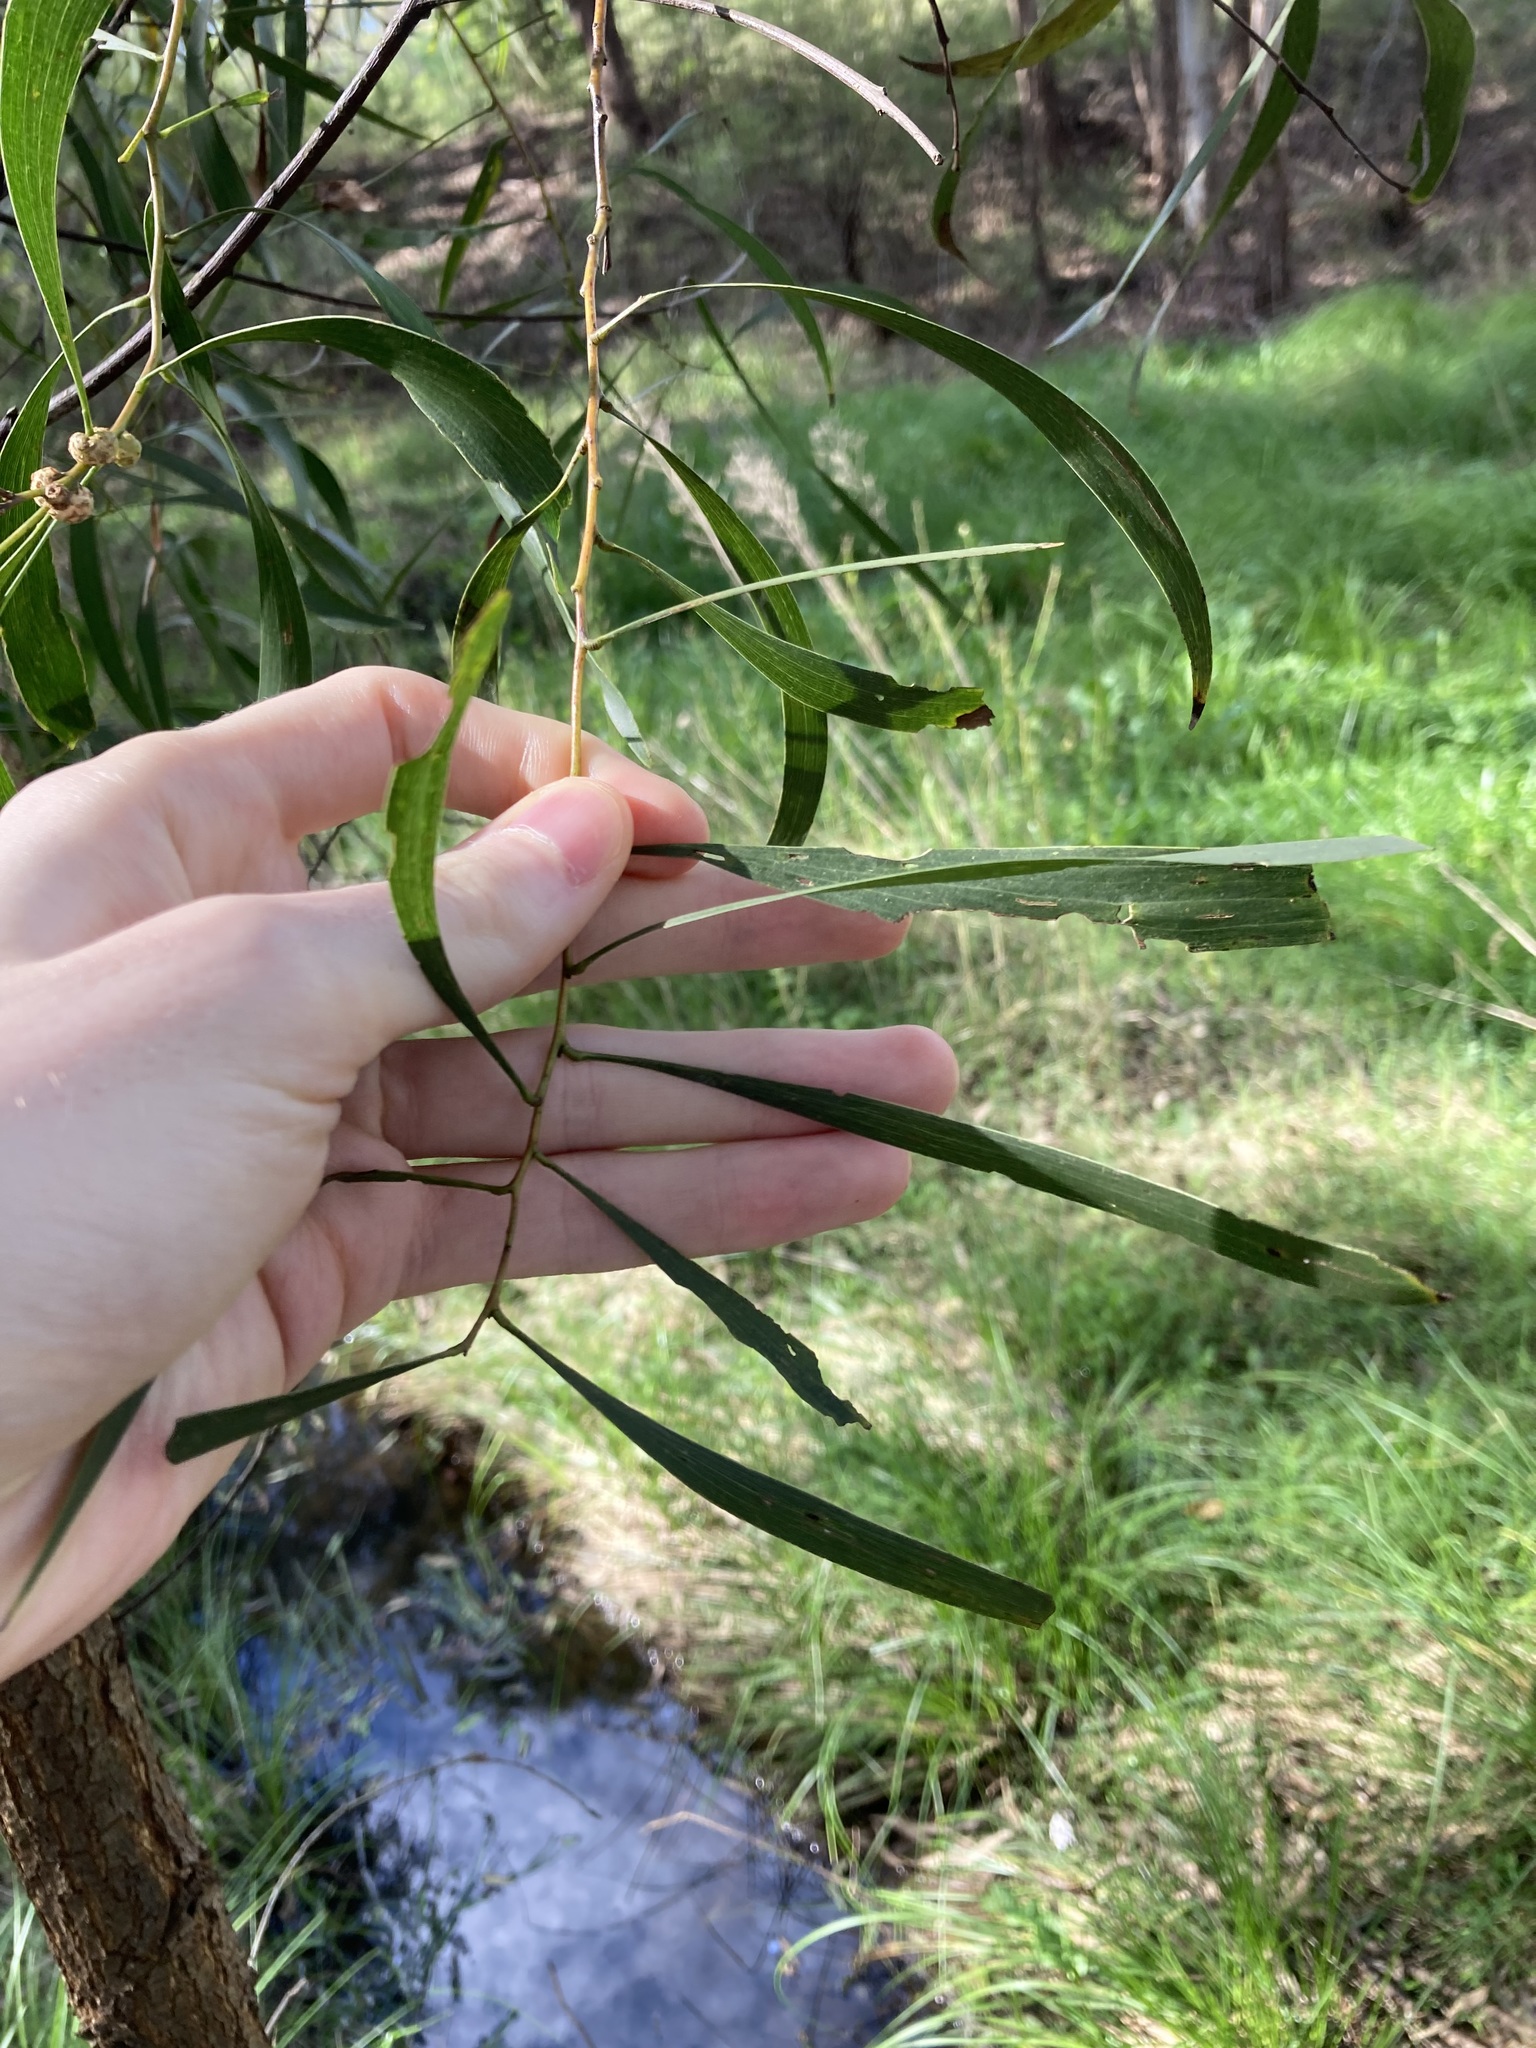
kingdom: Plantae
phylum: Tracheophyta
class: Magnoliopsida
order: Fabales
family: Fabaceae
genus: Acacia
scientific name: Acacia implexa
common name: Black wattle
